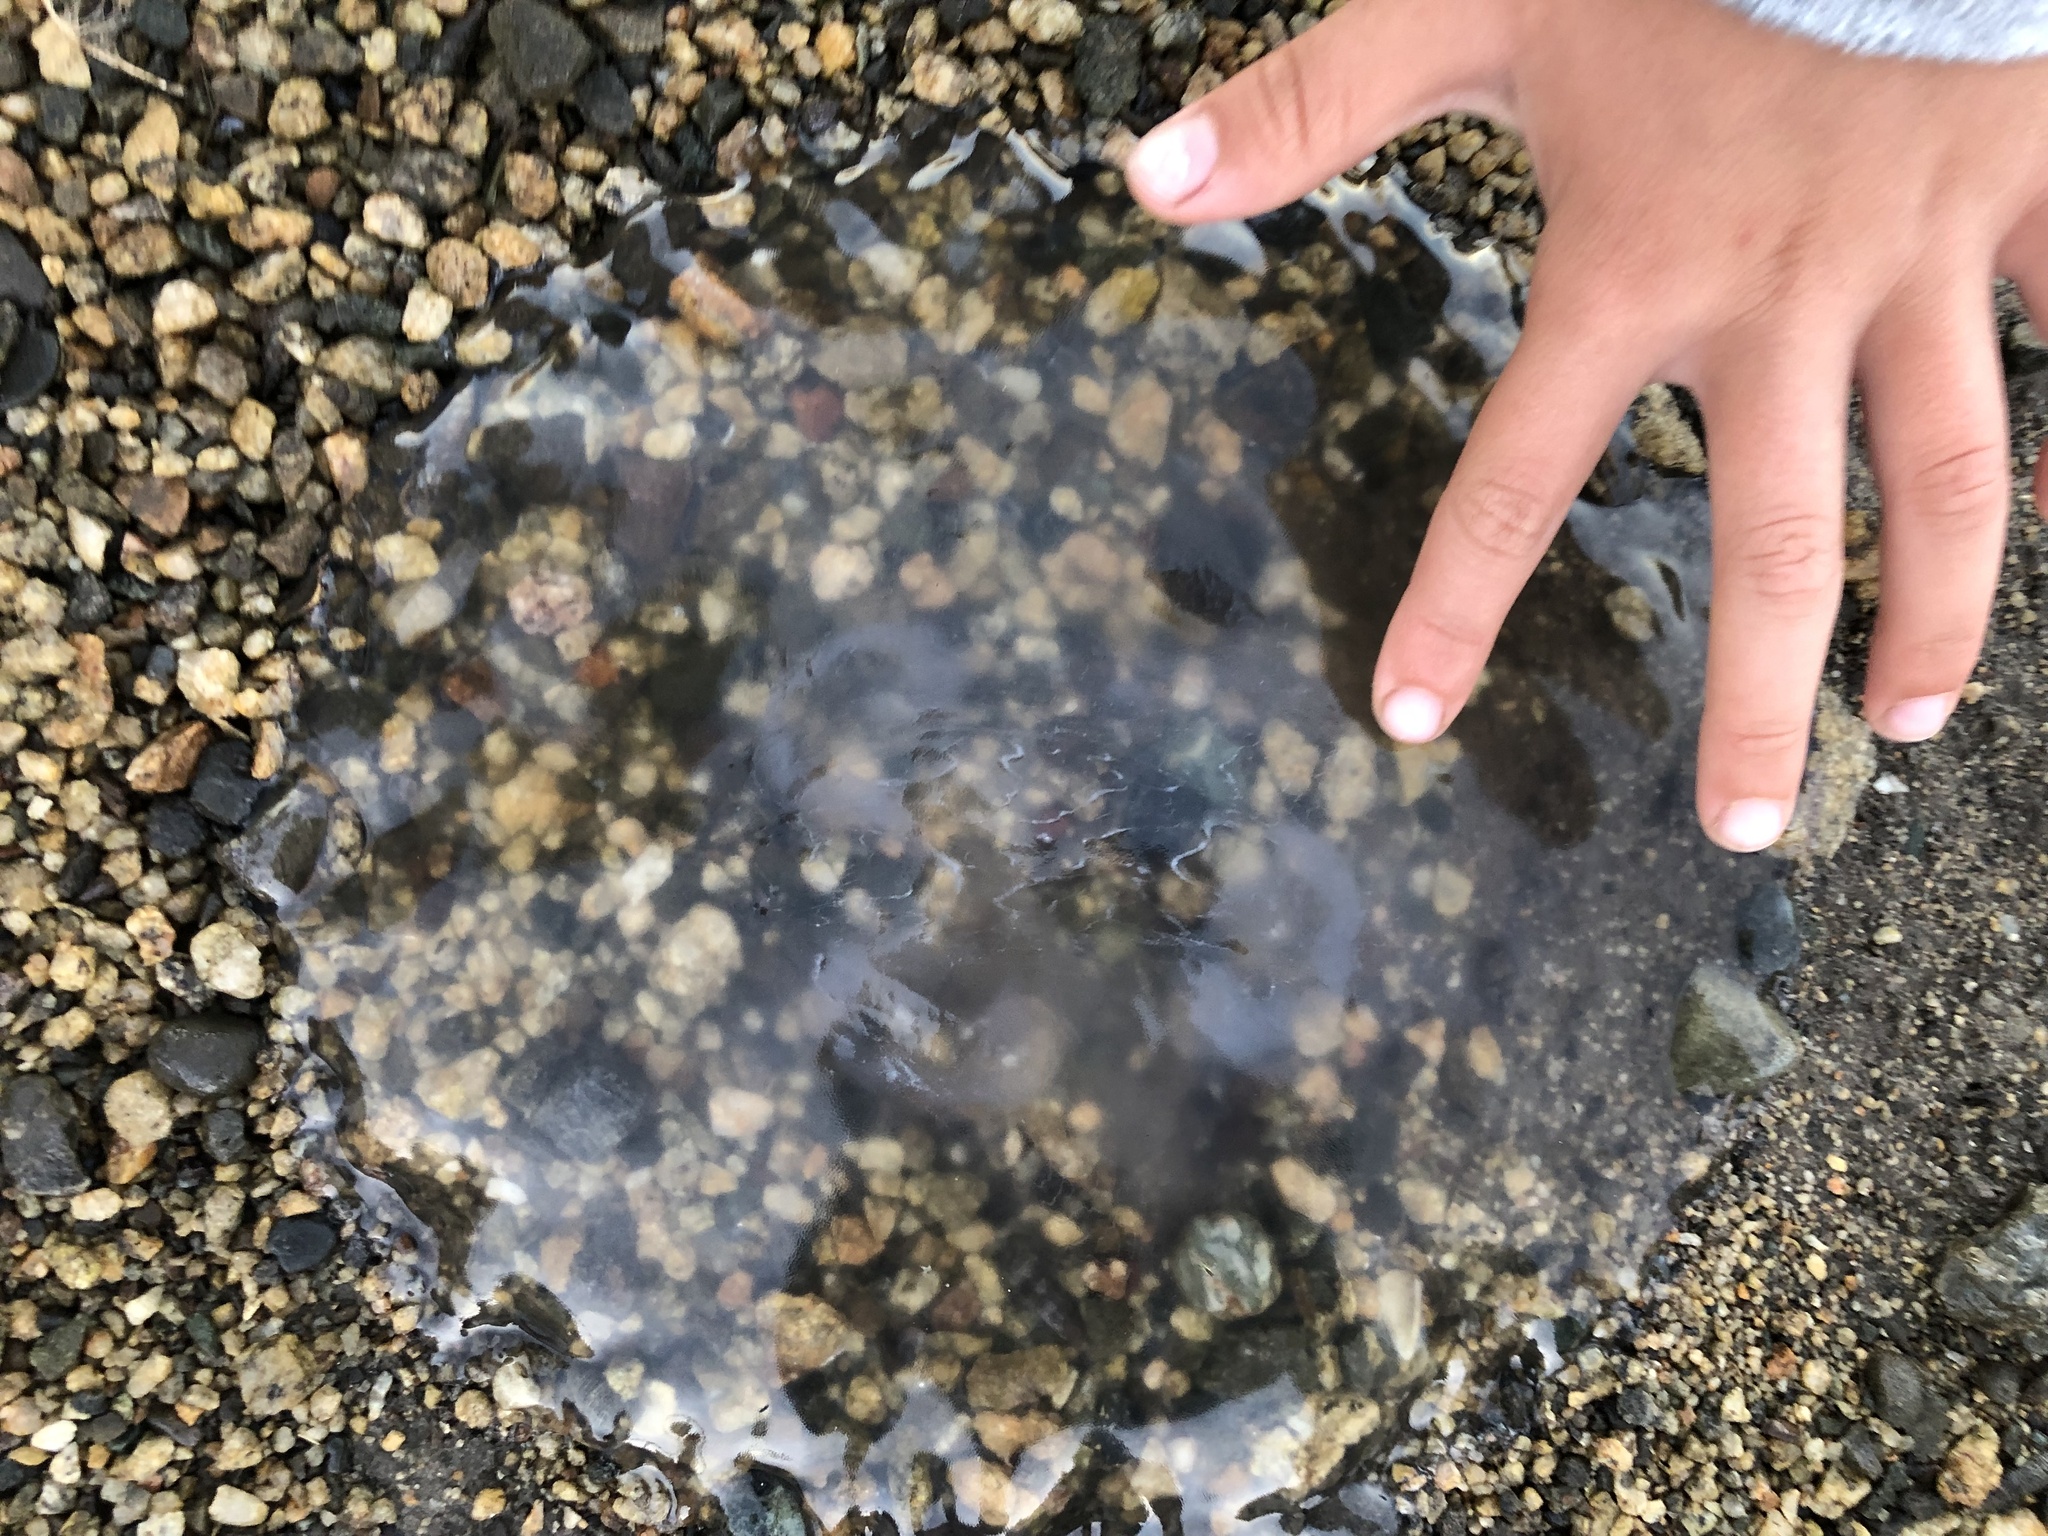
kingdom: Animalia
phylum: Cnidaria
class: Scyphozoa
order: Semaeostomeae
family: Ulmaridae
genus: Aurelia
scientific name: Aurelia labiata
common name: Pacific moon jelly
